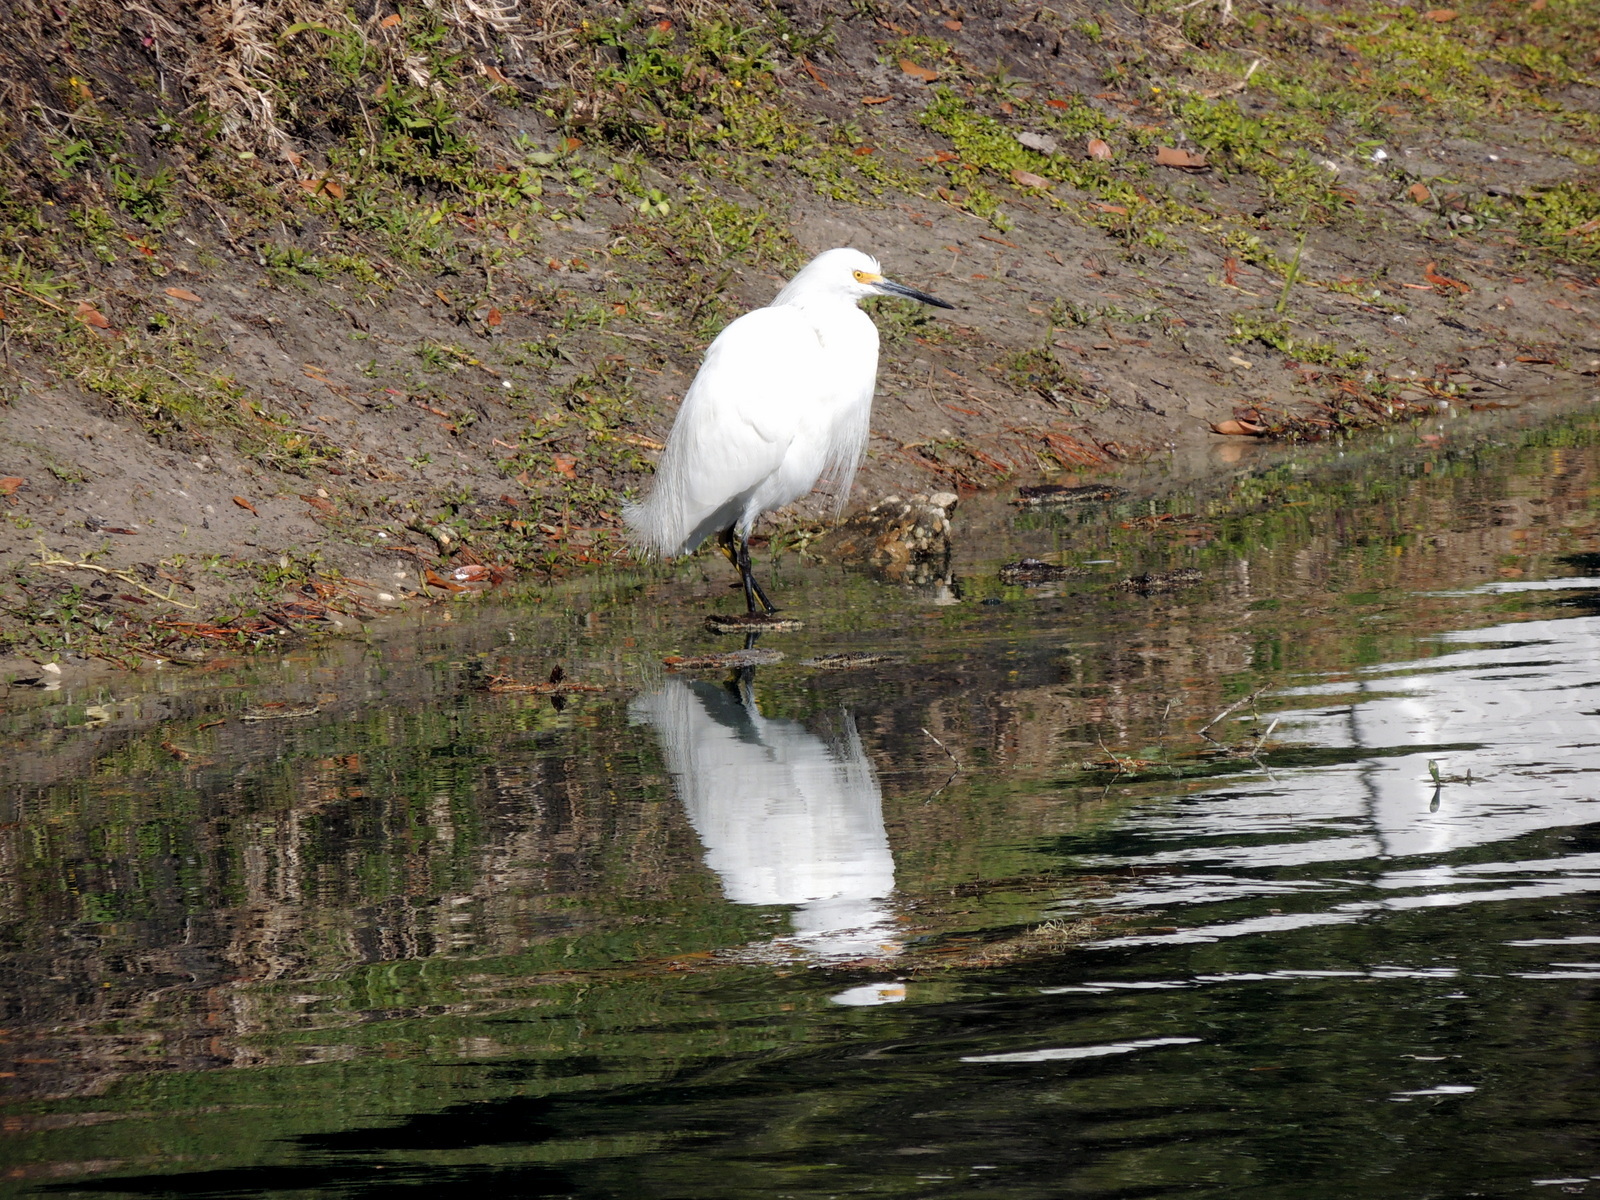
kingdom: Animalia
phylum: Chordata
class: Aves
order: Pelecaniformes
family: Ardeidae
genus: Egretta
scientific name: Egretta thula
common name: Snowy egret
